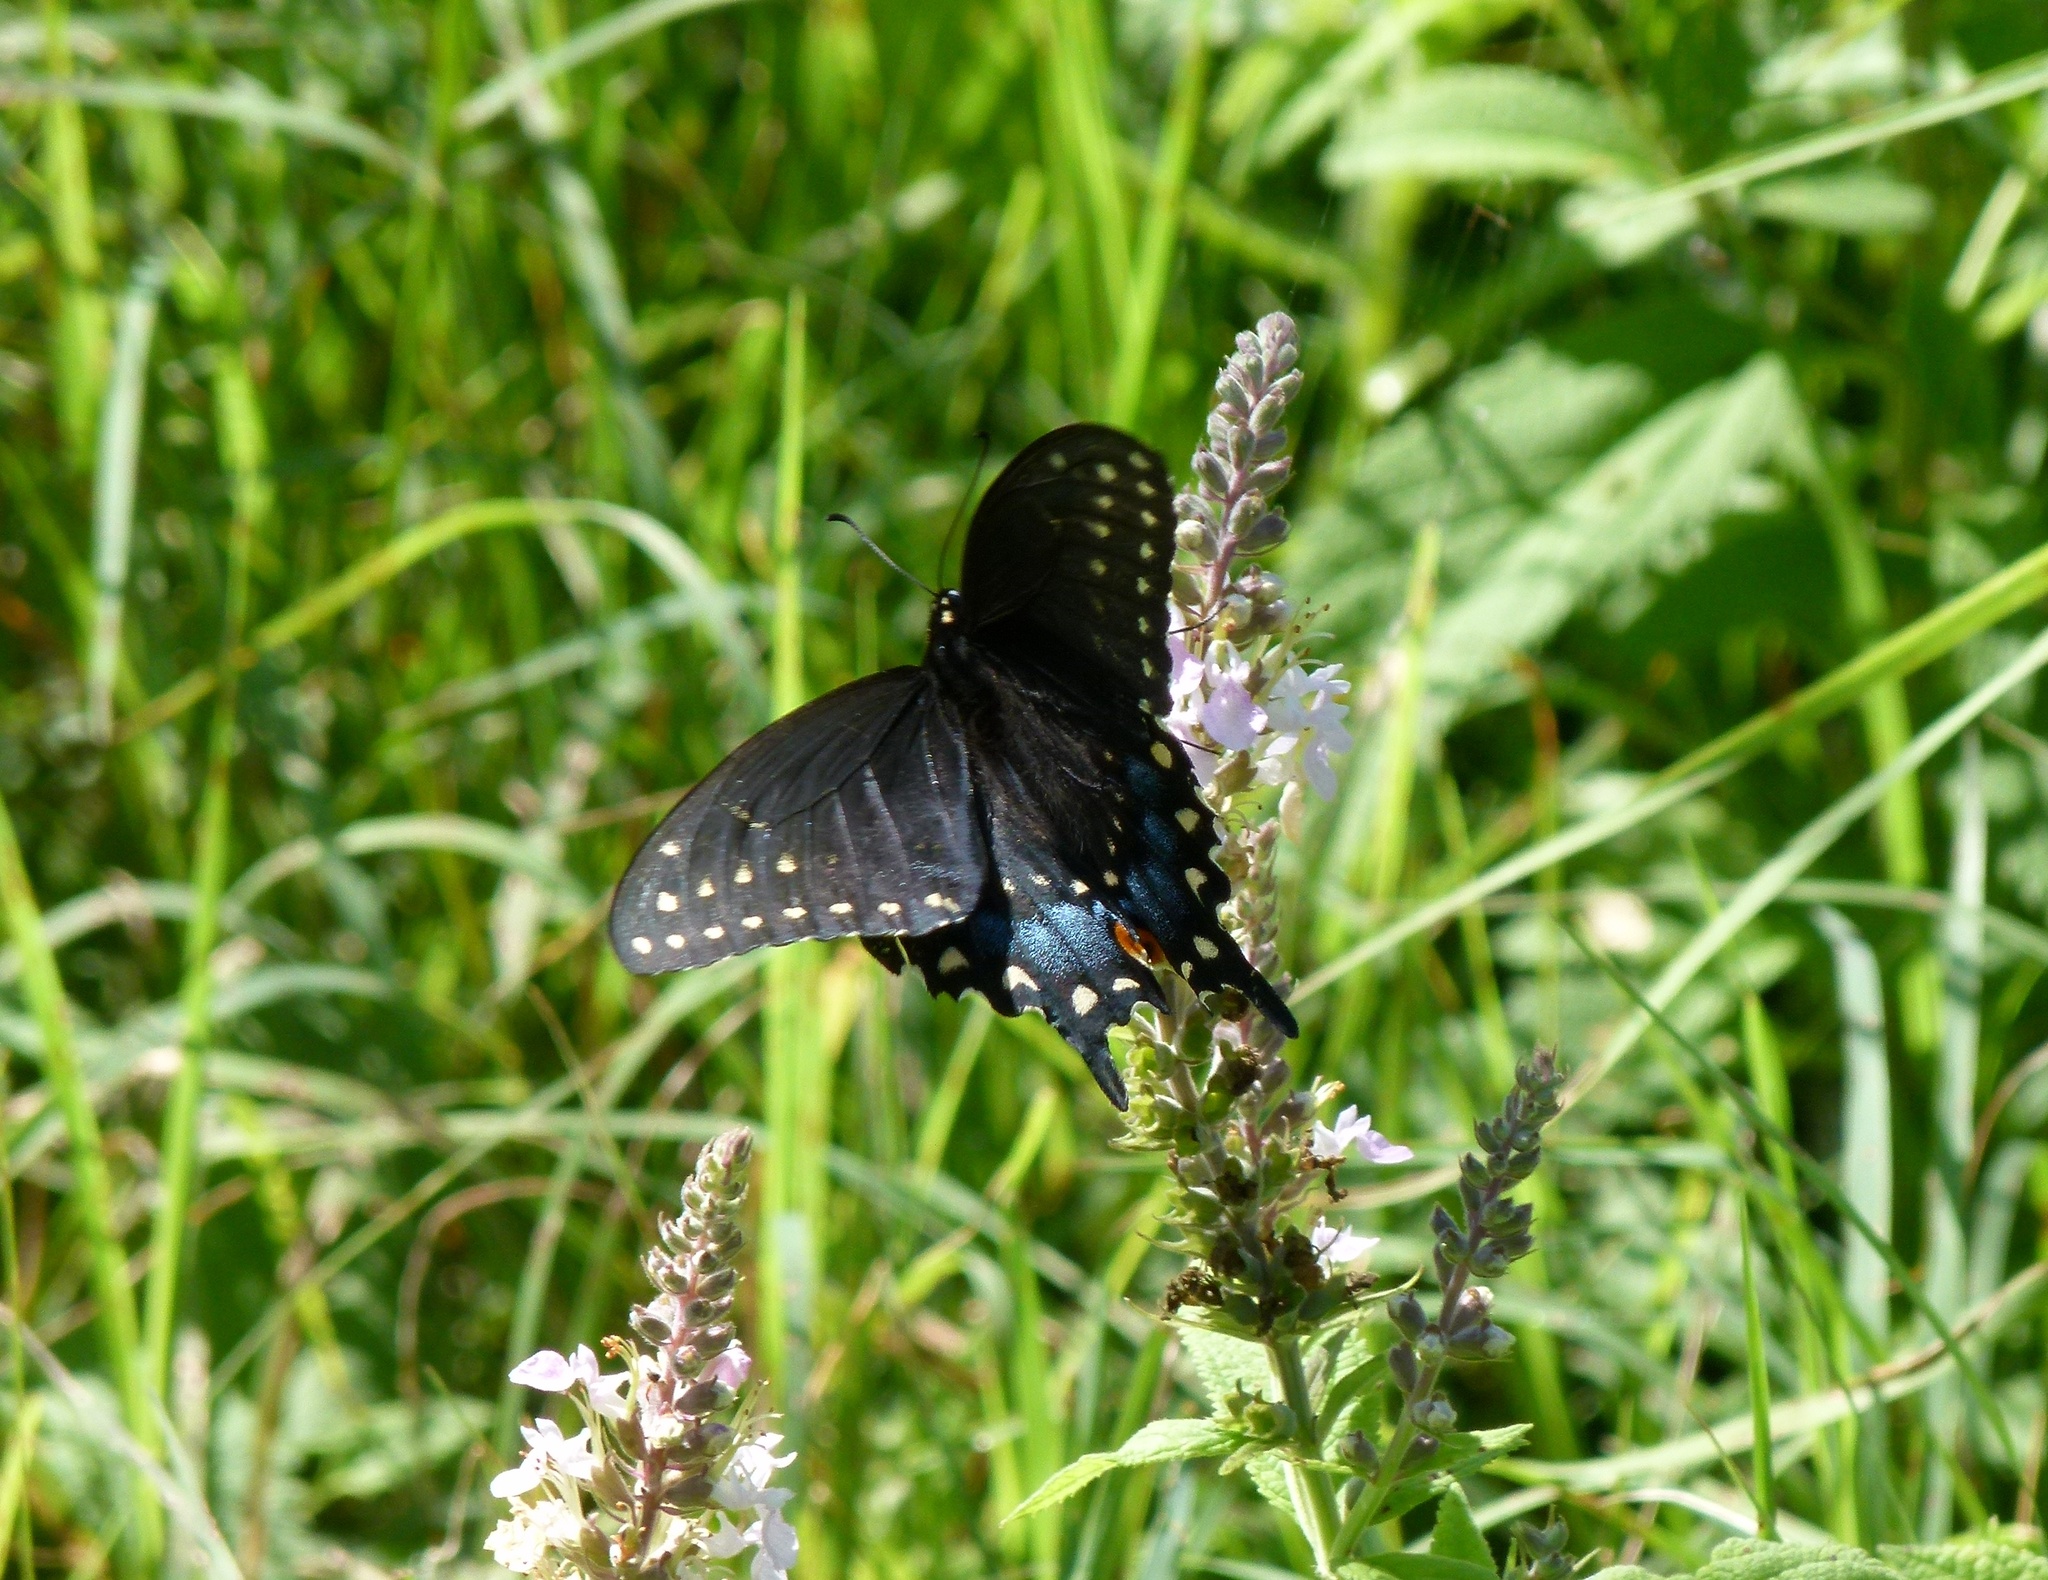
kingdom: Animalia
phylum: Arthropoda
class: Insecta
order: Lepidoptera
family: Papilionidae
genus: Papilio
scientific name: Papilio polyxenes
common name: Black swallowtail
